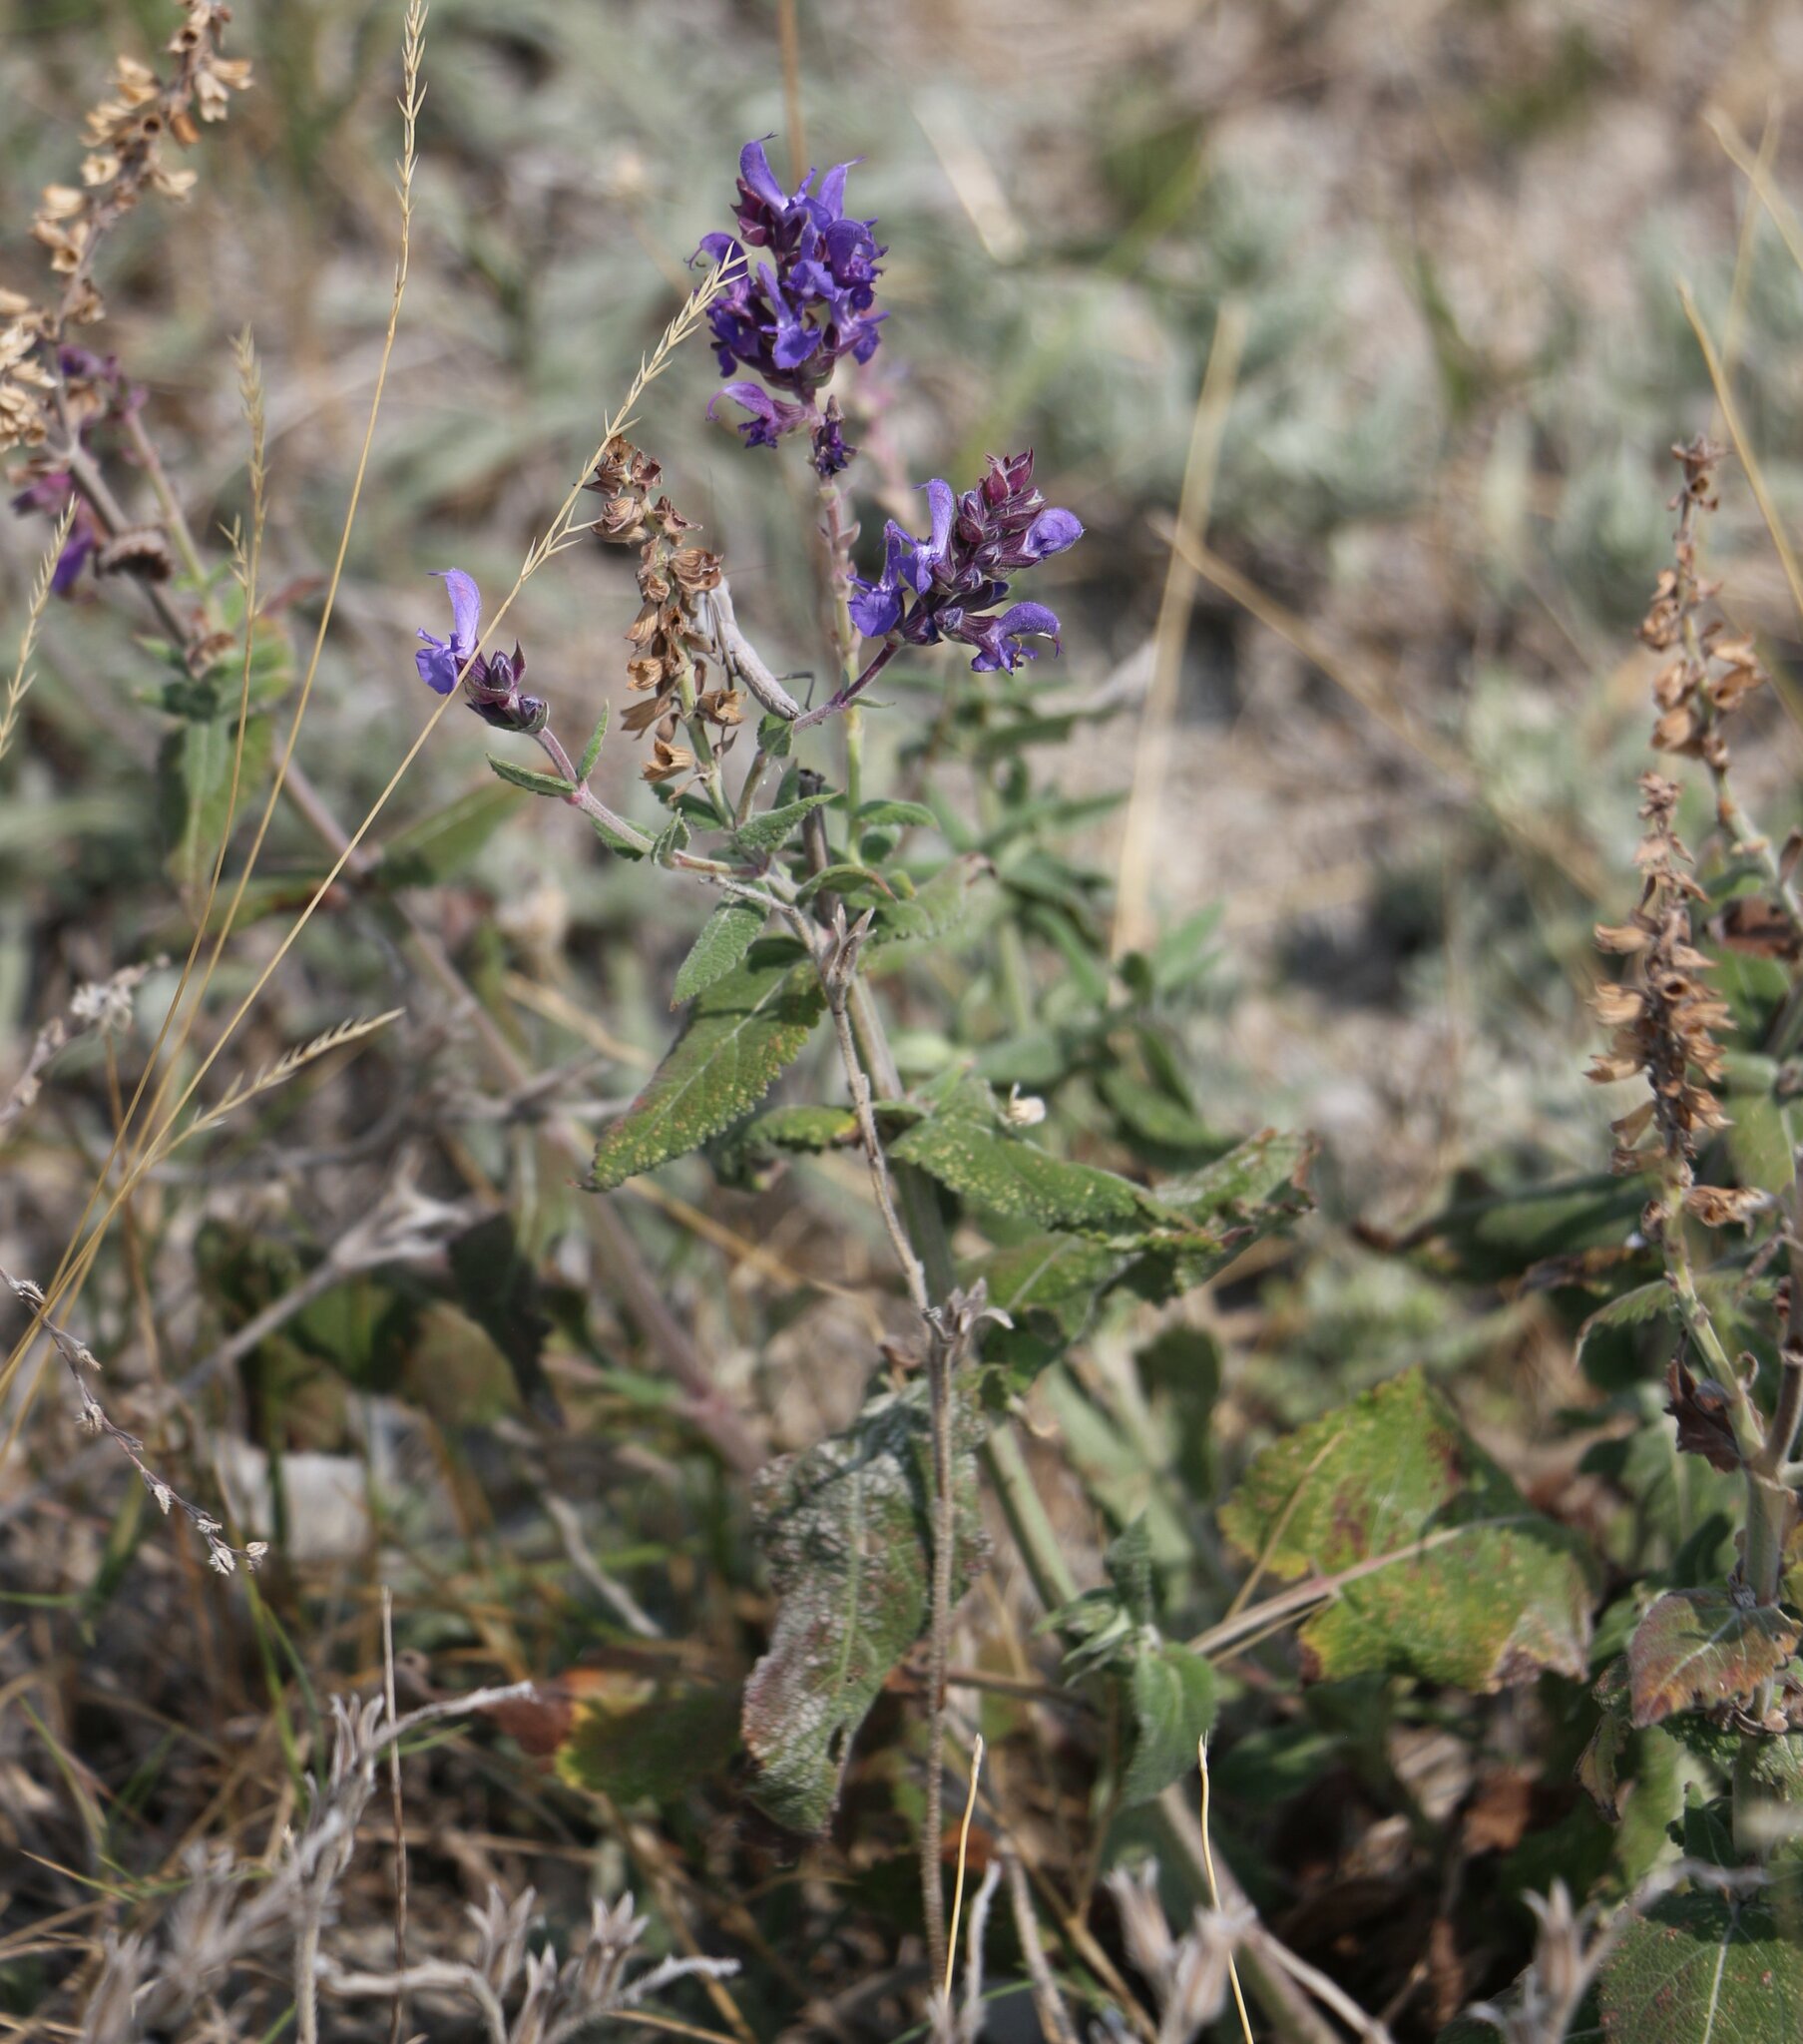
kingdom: Plantae
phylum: Tracheophyta
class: Magnoliopsida
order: Lamiales
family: Lamiaceae
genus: Salvia
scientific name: Salvia nemorosa
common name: Balkan clary
